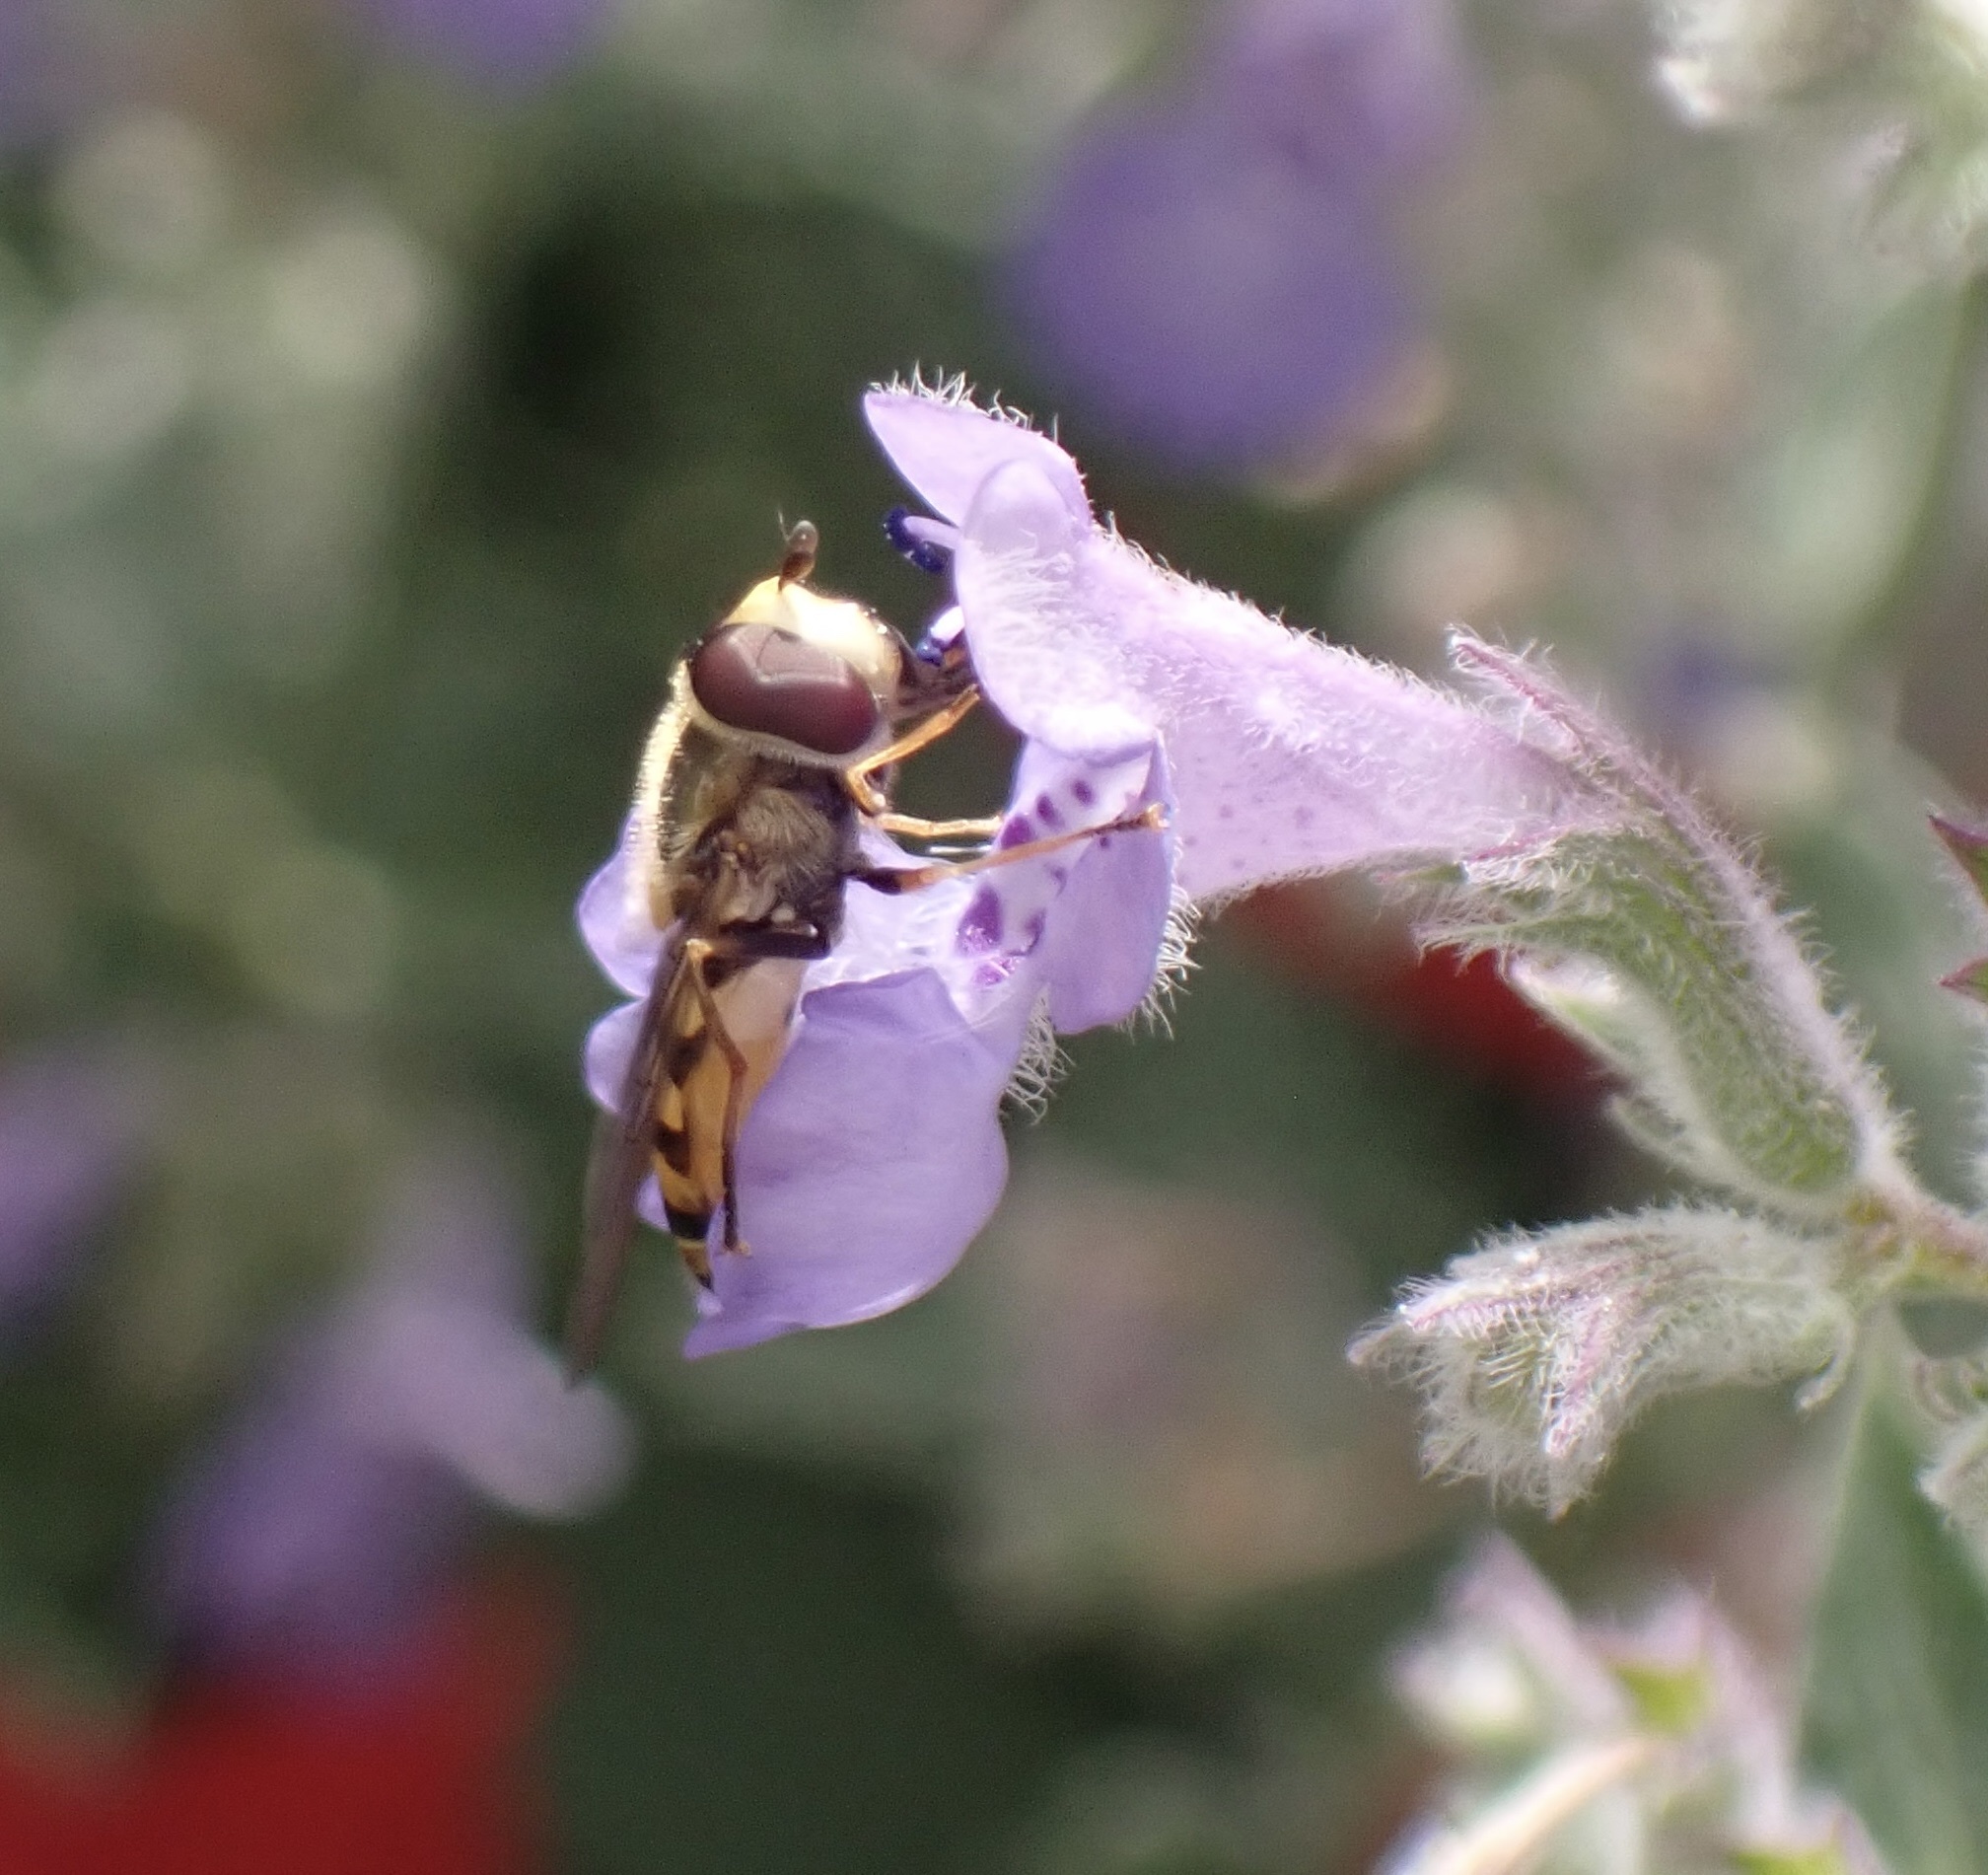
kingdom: Animalia
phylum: Arthropoda
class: Insecta
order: Diptera
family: Syrphidae
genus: Eupeodes
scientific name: Eupeodes corollae
